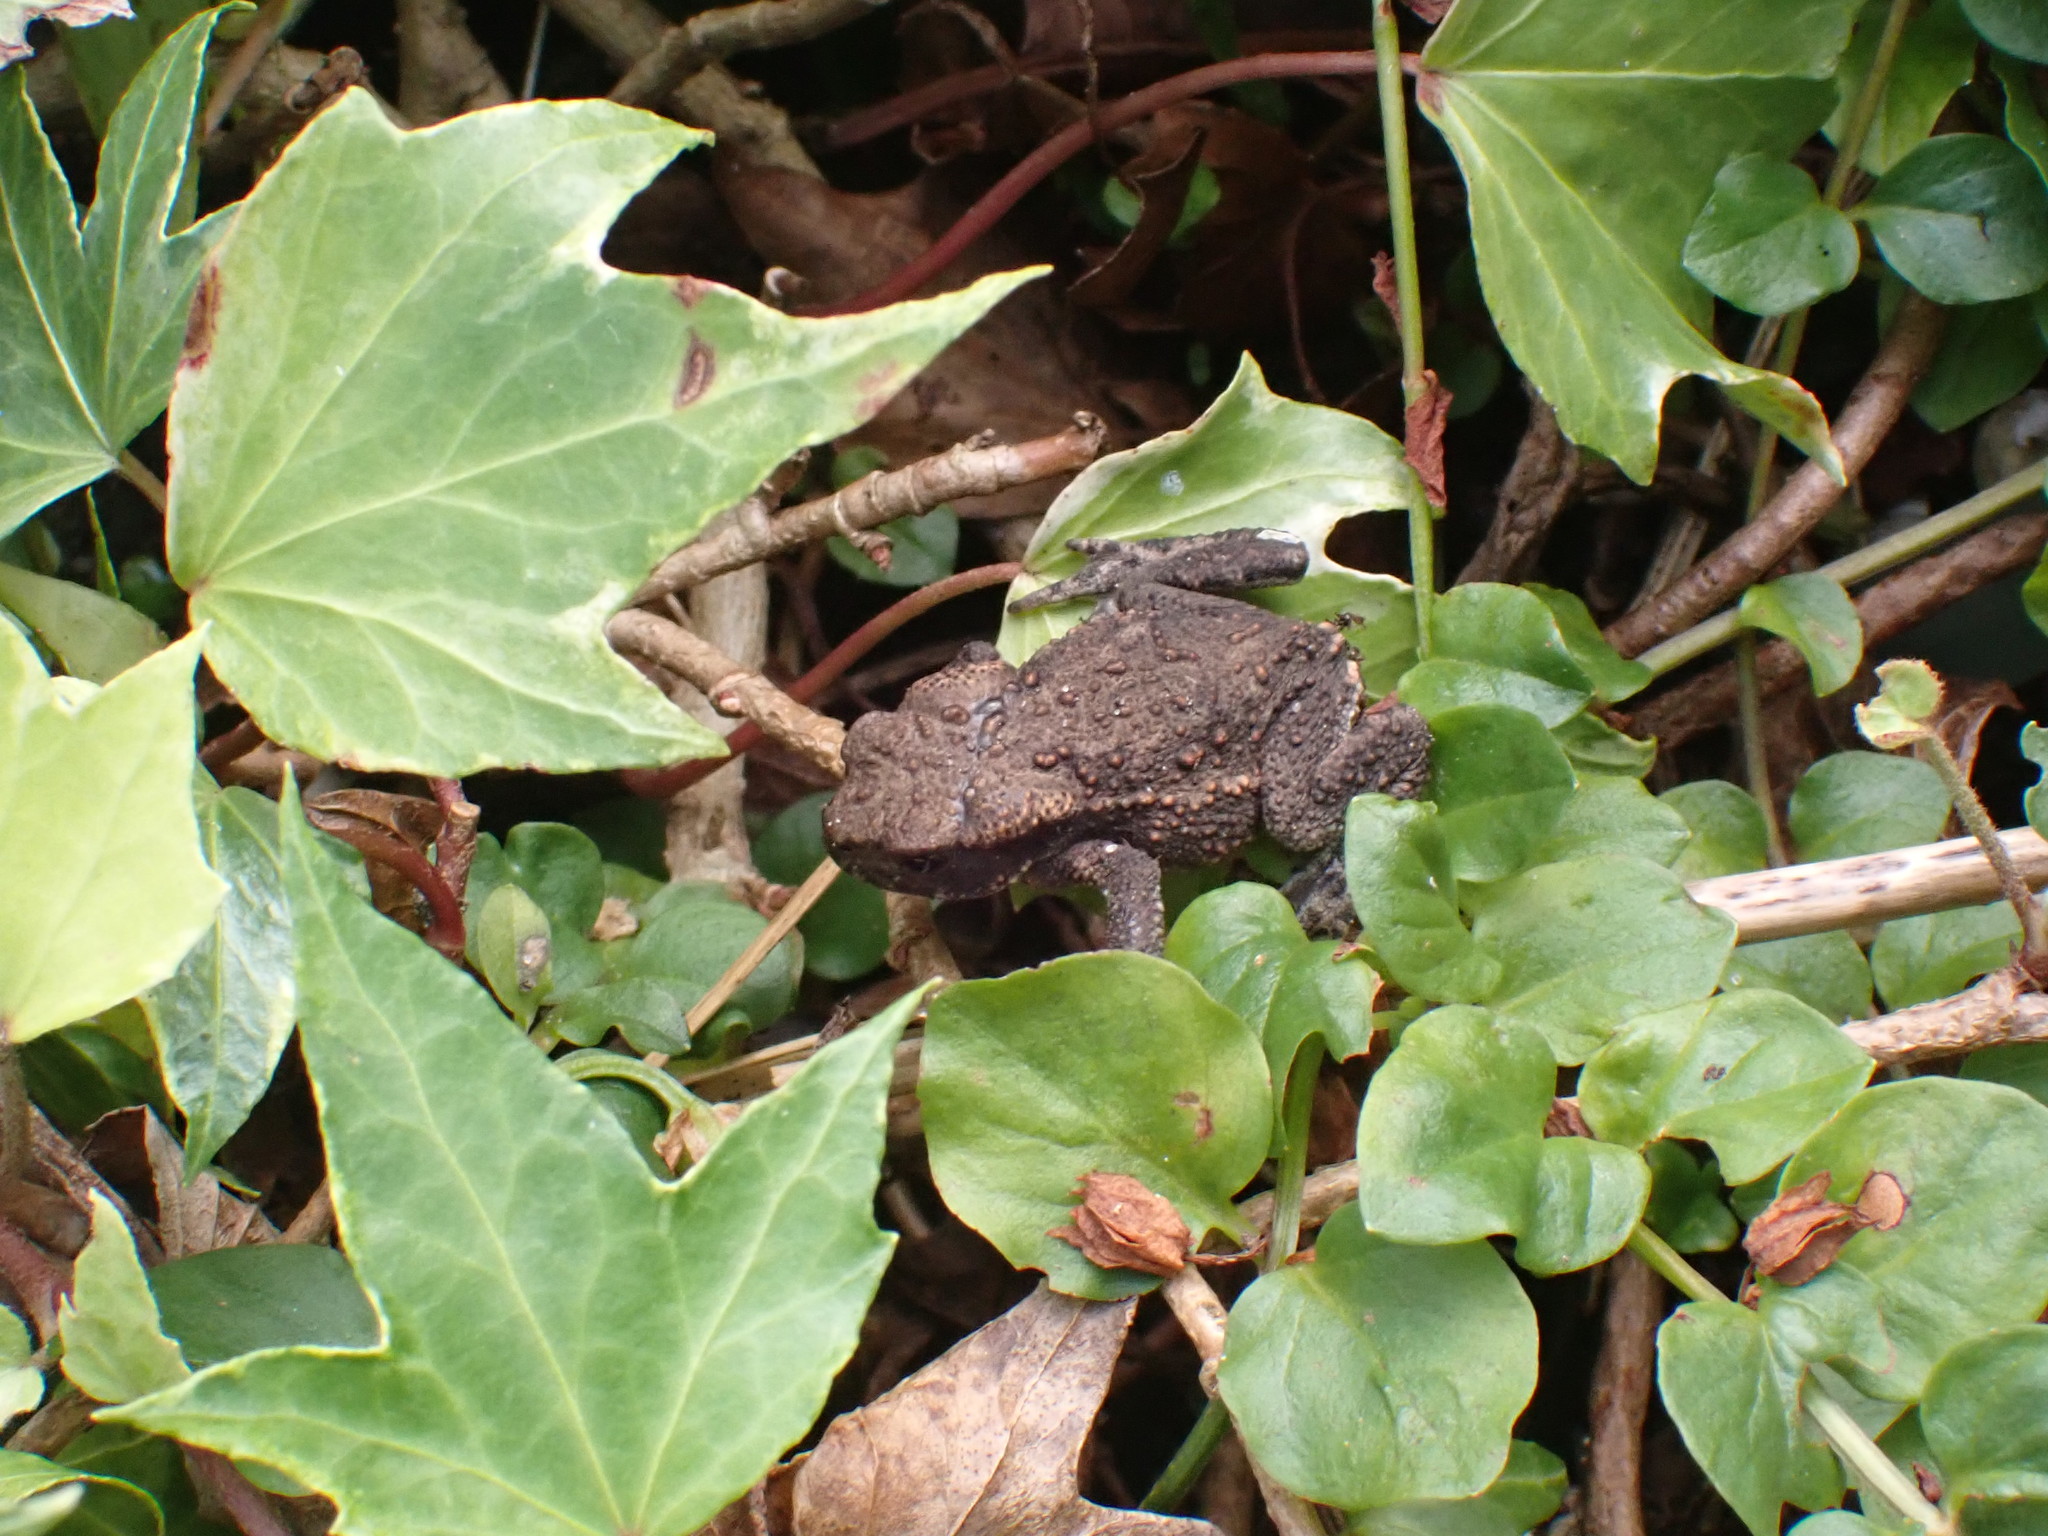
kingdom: Animalia
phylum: Chordata
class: Amphibia
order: Anura
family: Bufonidae
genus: Bufo
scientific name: Bufo bufo
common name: Common toad
